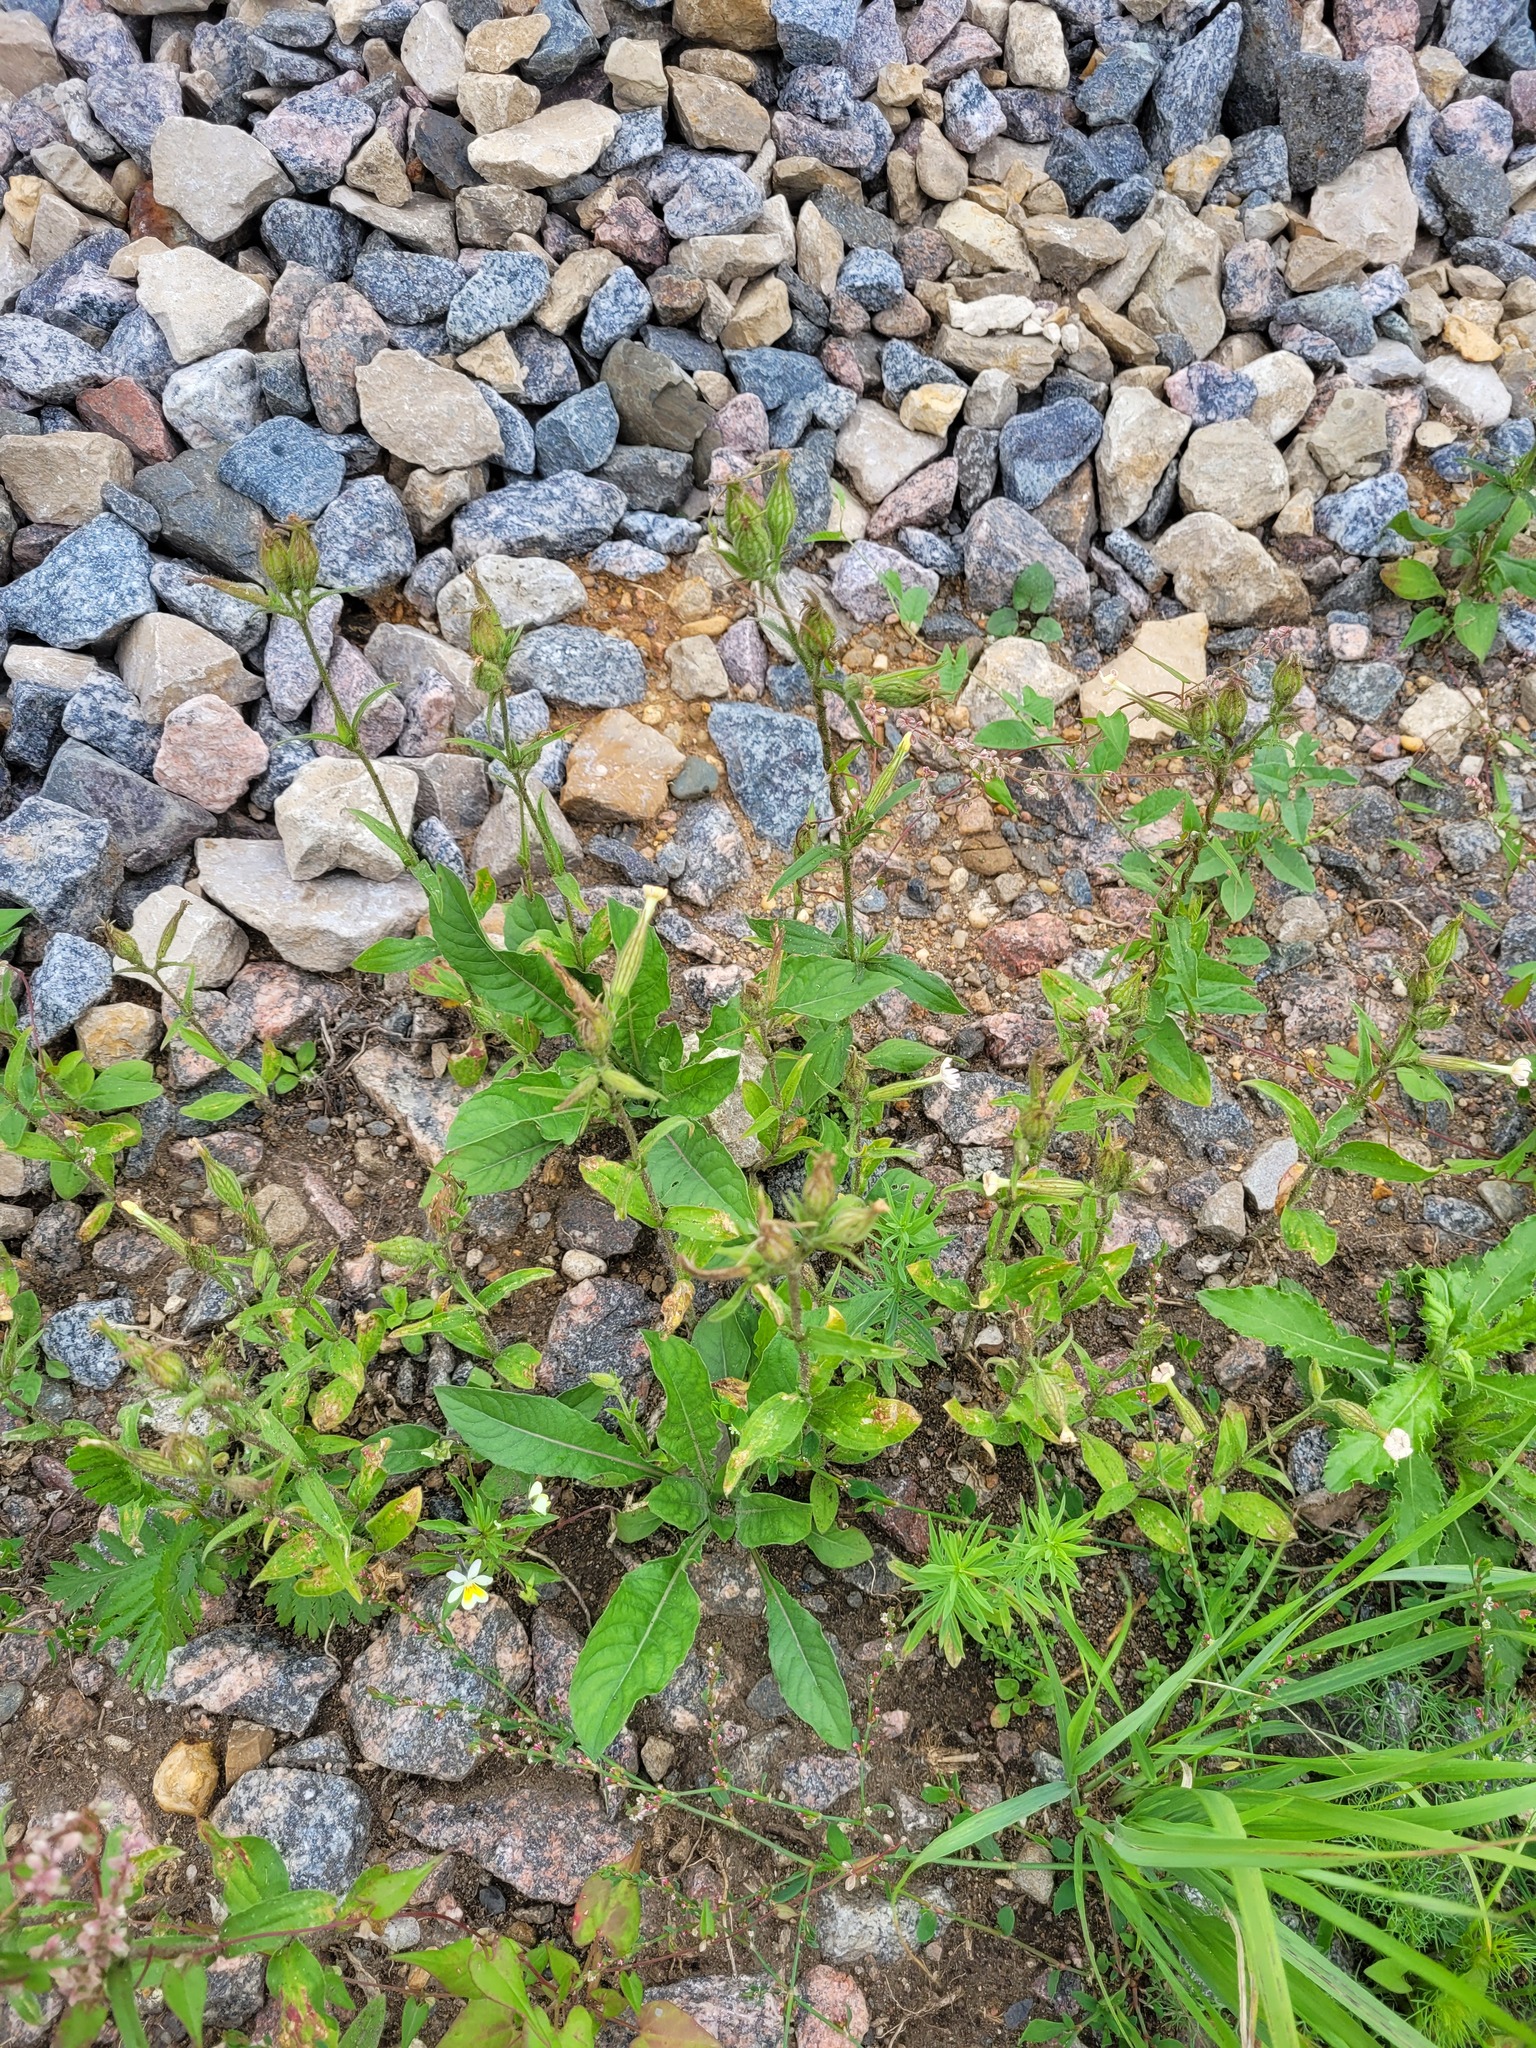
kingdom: Plantae
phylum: Tracheophyta
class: Magnoliopsida
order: Caryophyllales
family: Caryophyllaceae
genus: Silene
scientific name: Silene noctiflora
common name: Night-flowering catchfly
